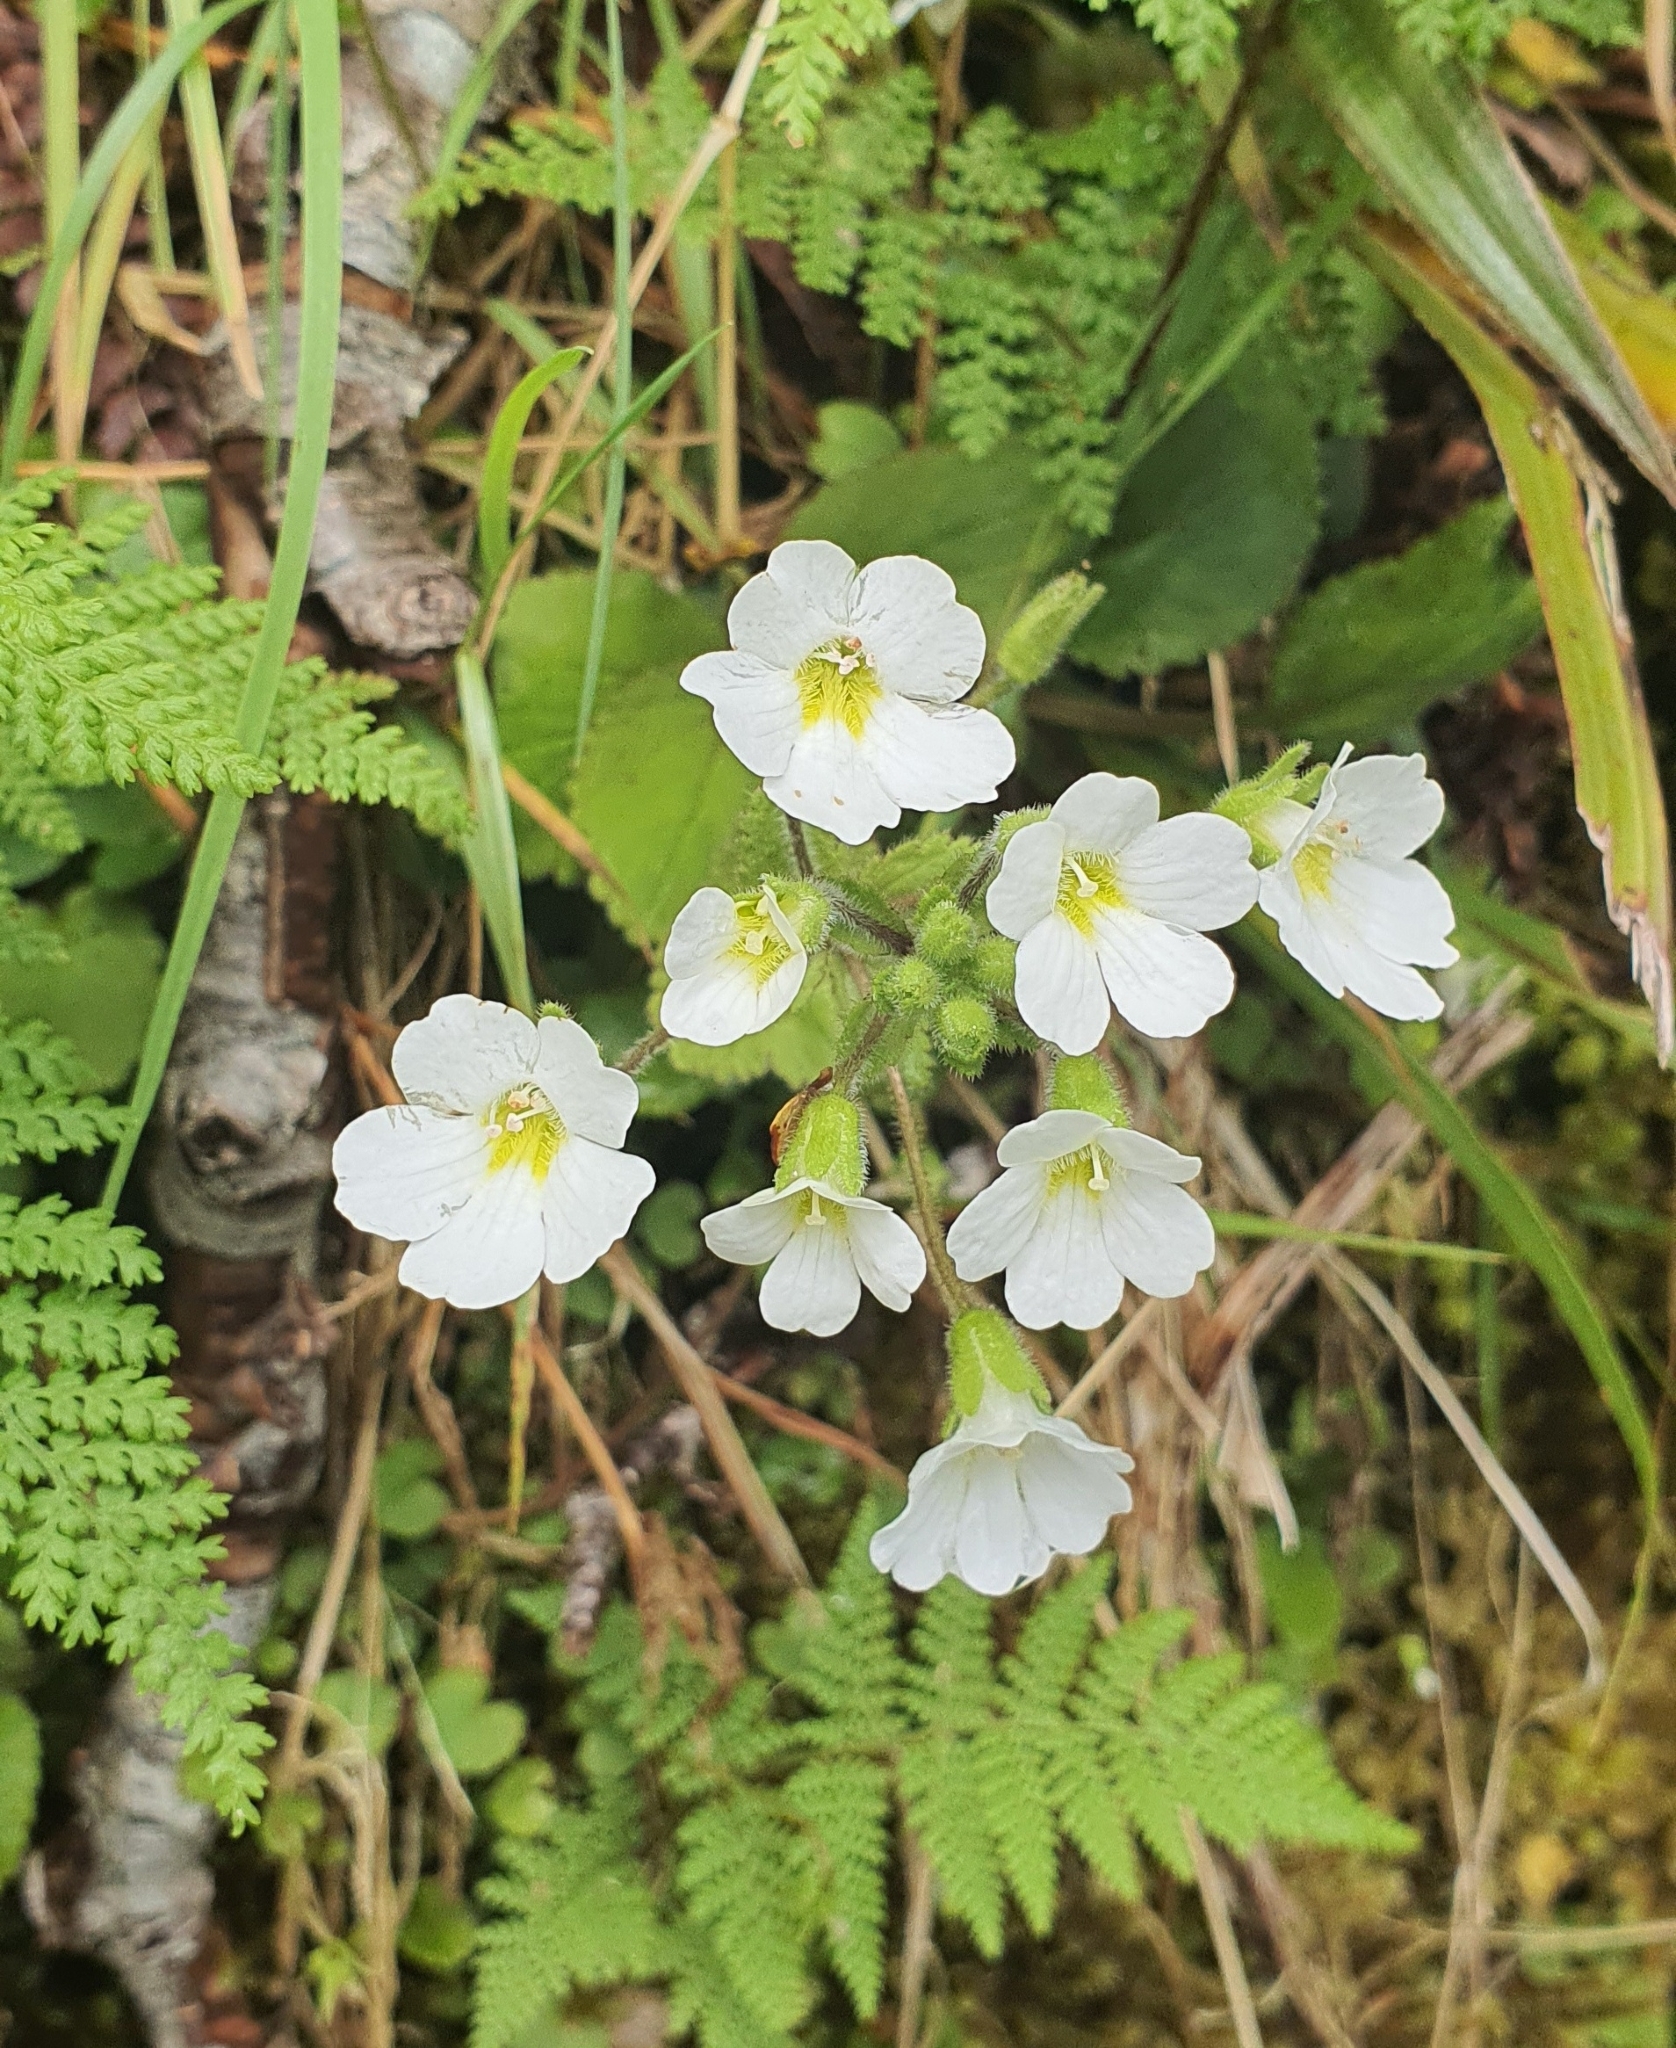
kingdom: Plantae
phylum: Tracheophyta
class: Magnoliopsida
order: Lamiales
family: Plantaginaceae
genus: Ourisia
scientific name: Ourisia crosbyi
